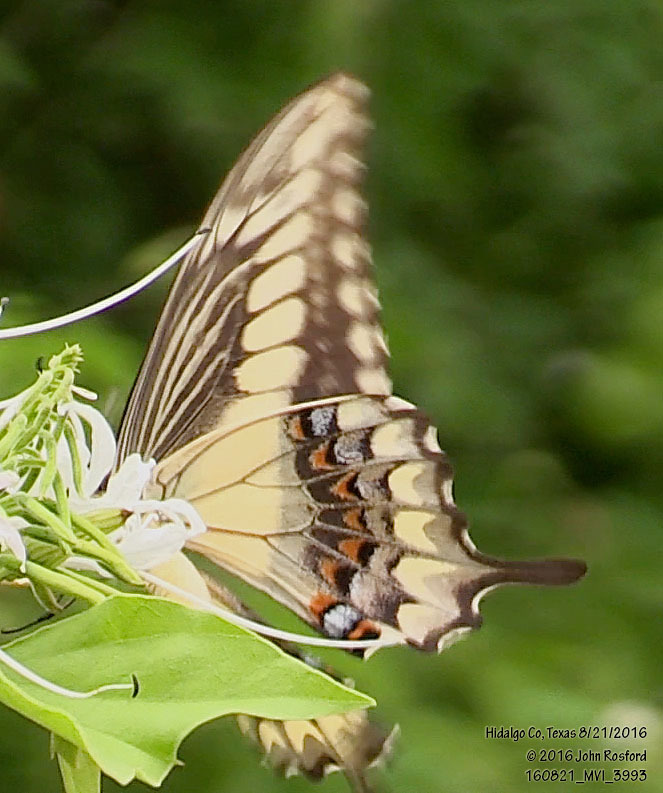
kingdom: Animalia
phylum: Arthropoda
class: Insecta
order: Lepidoptera
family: Papilionidae
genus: Papilio
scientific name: Papilio ornythion
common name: Ornythion swallowtail
